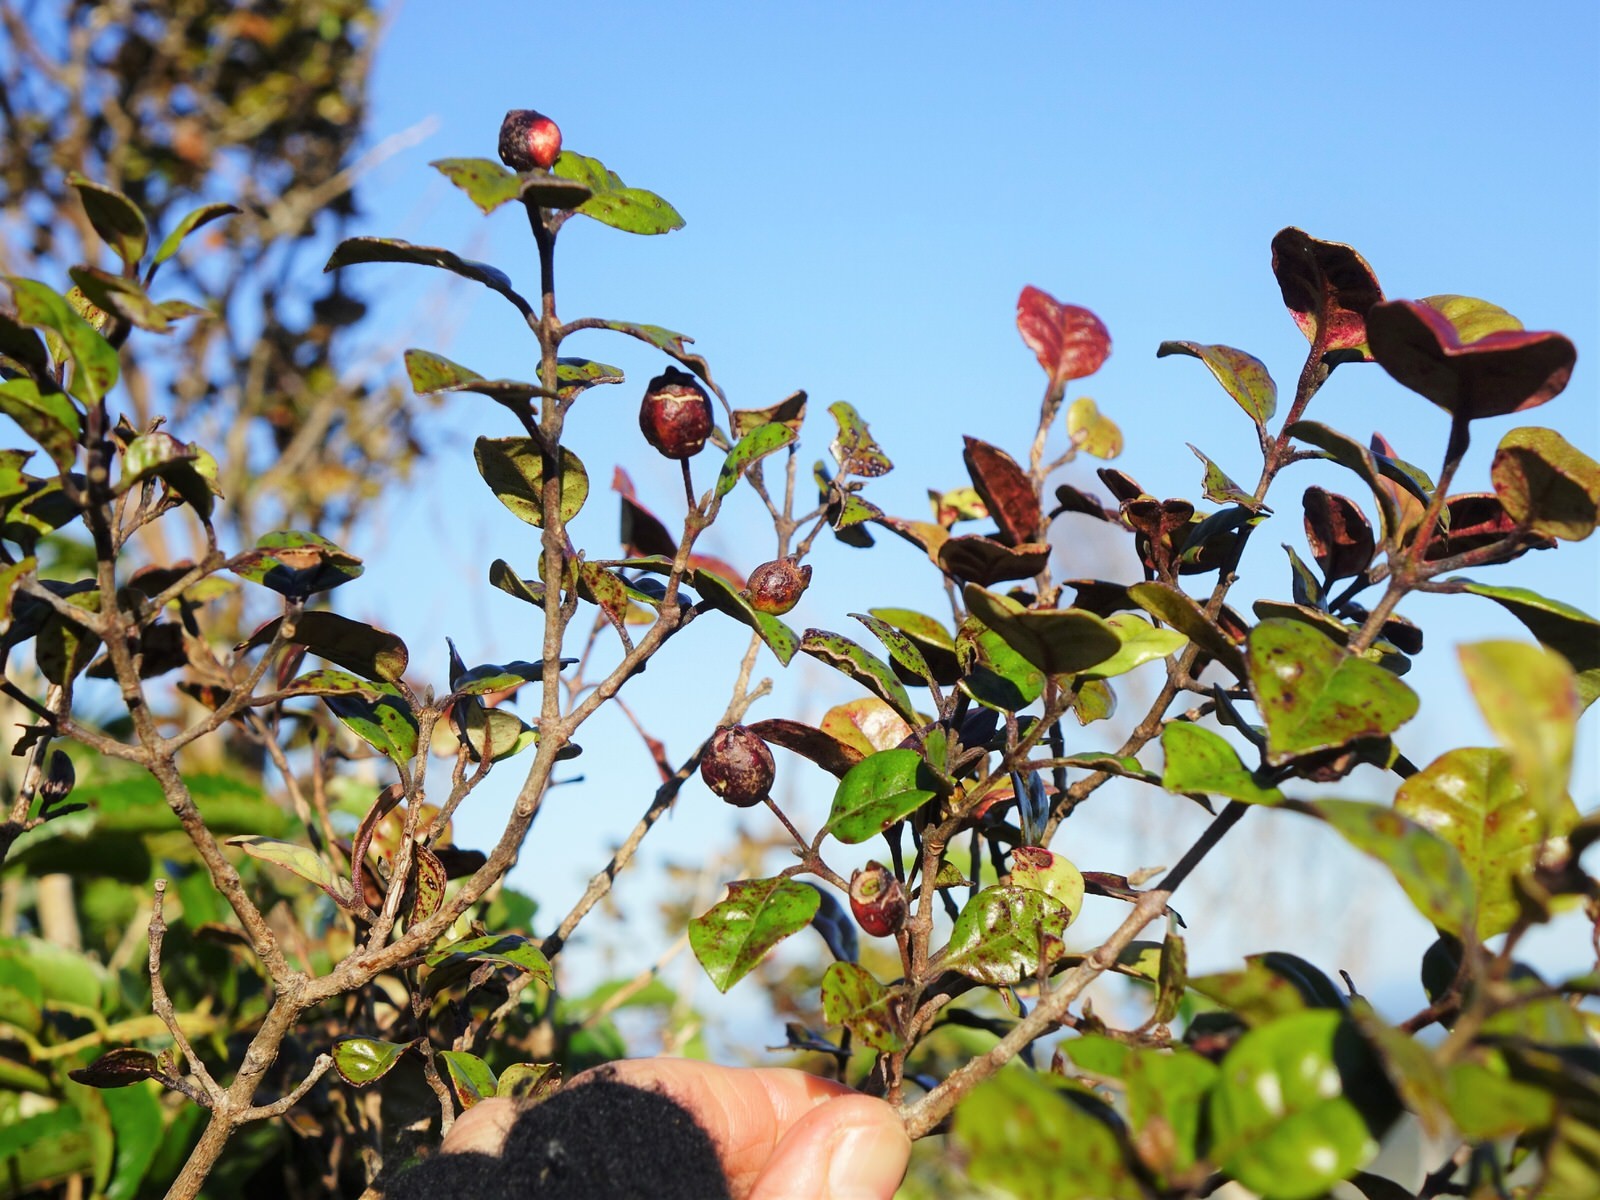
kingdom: Plantae
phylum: Tracheophyta
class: Magnoliopsida
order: Myrtales
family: Myrtaceae
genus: Lophomyrtus
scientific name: Lophomyrtus bullata
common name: Rama rama
